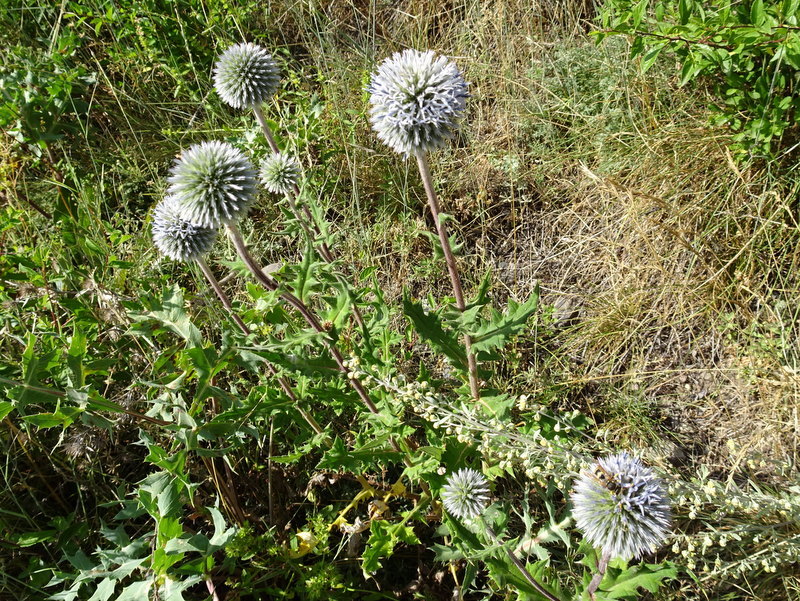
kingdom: Plantae
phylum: Tracheophyta
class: Magnoliopsida
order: Asterales
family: Asteraceae
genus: Echinops
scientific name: Echinops sphaerocephalus
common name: Glandular globe-thistle
